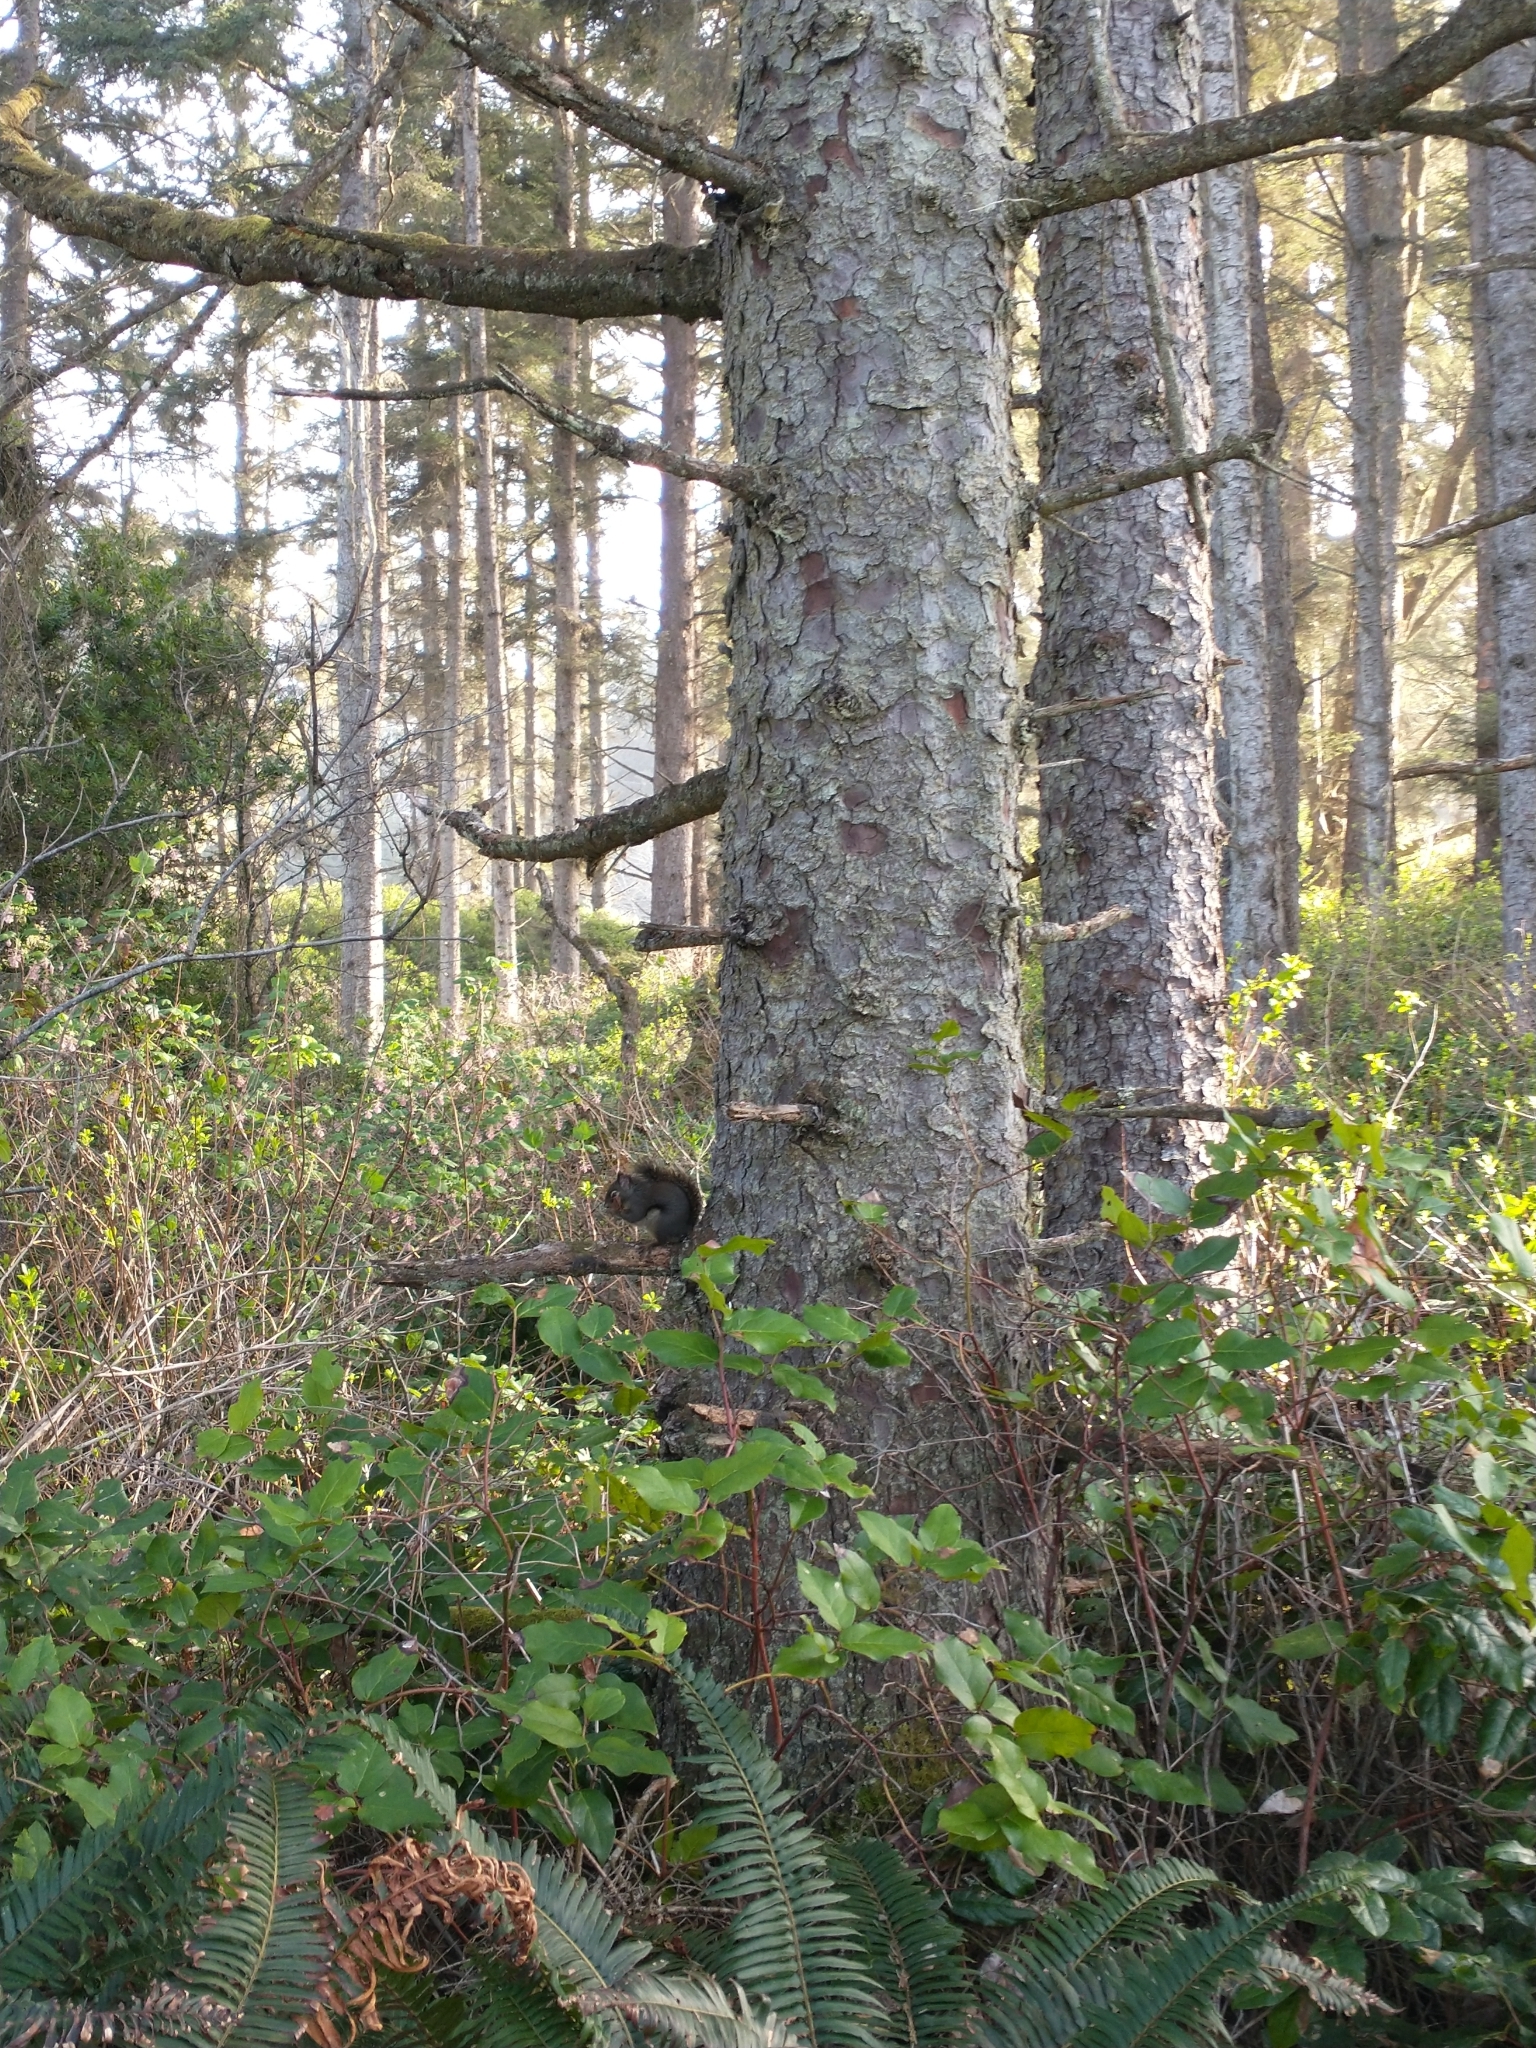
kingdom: Animalia
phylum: Chordata
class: Mammalia
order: Rodentia
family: Sciuridae
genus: Tamiasciurus
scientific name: Tamiasciurus douglasii
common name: Douglas's squirrel
